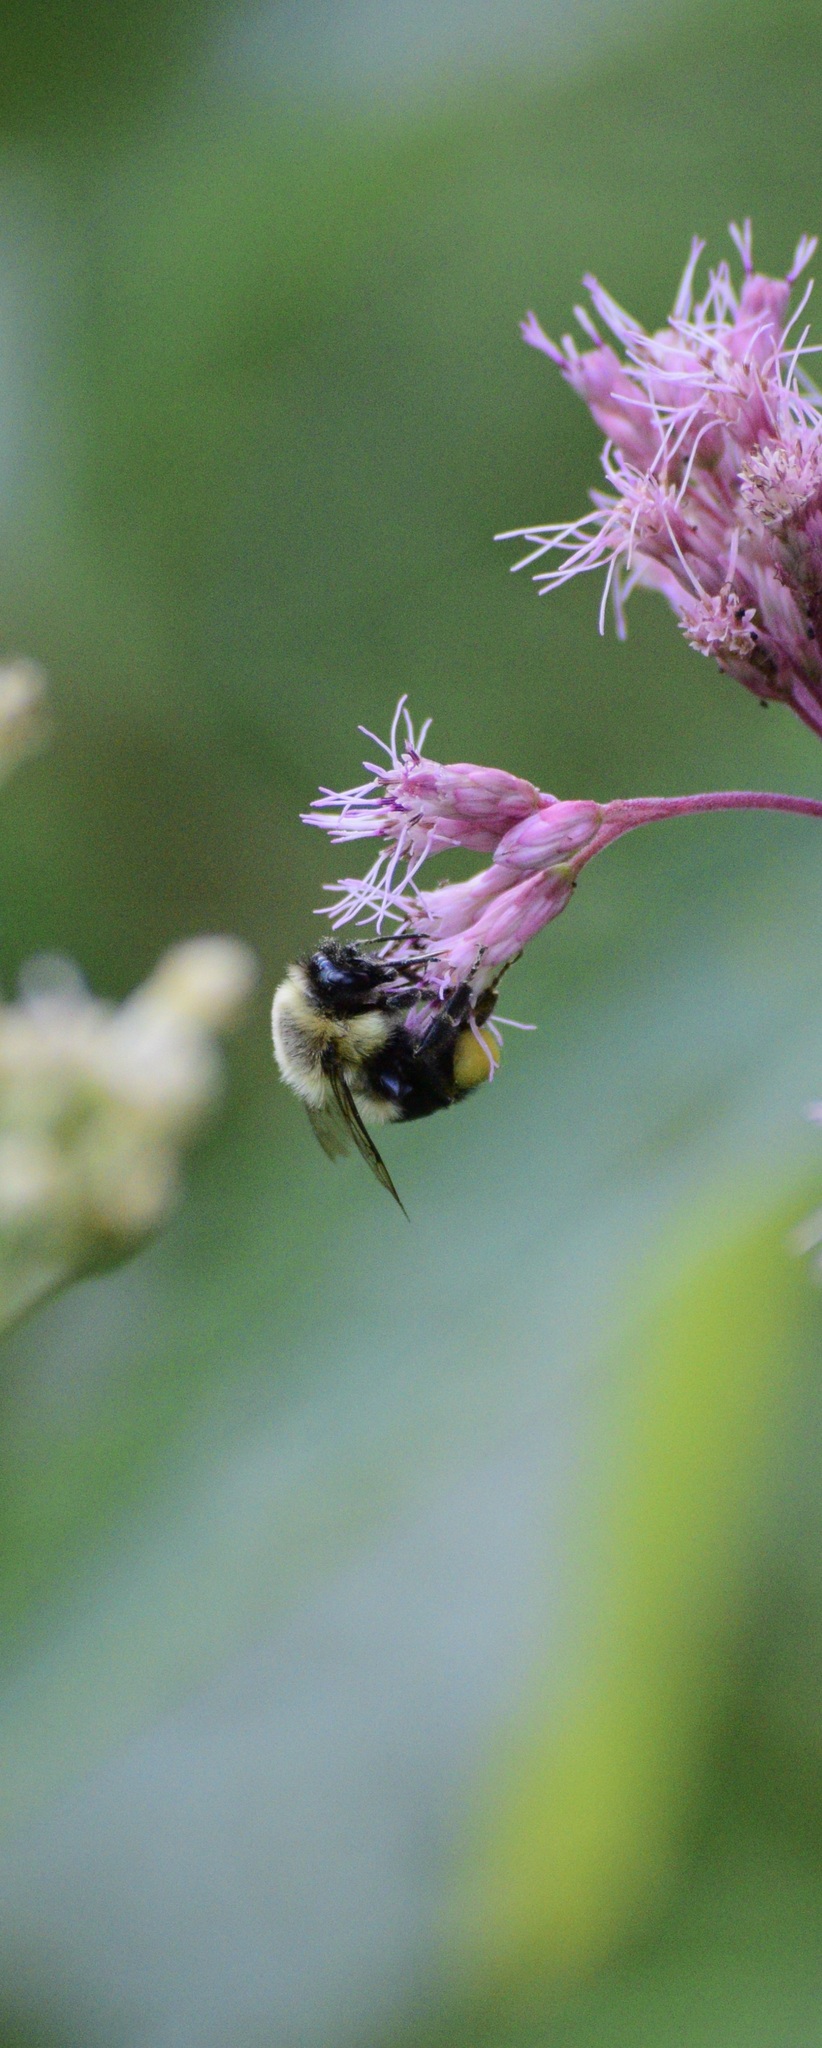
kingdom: Animalia
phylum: Arthropoda
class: Insecta
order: Hymenoptera
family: Apidae
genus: Bombus
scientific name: Bombus impatiens
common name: Common eastern bumble bee
